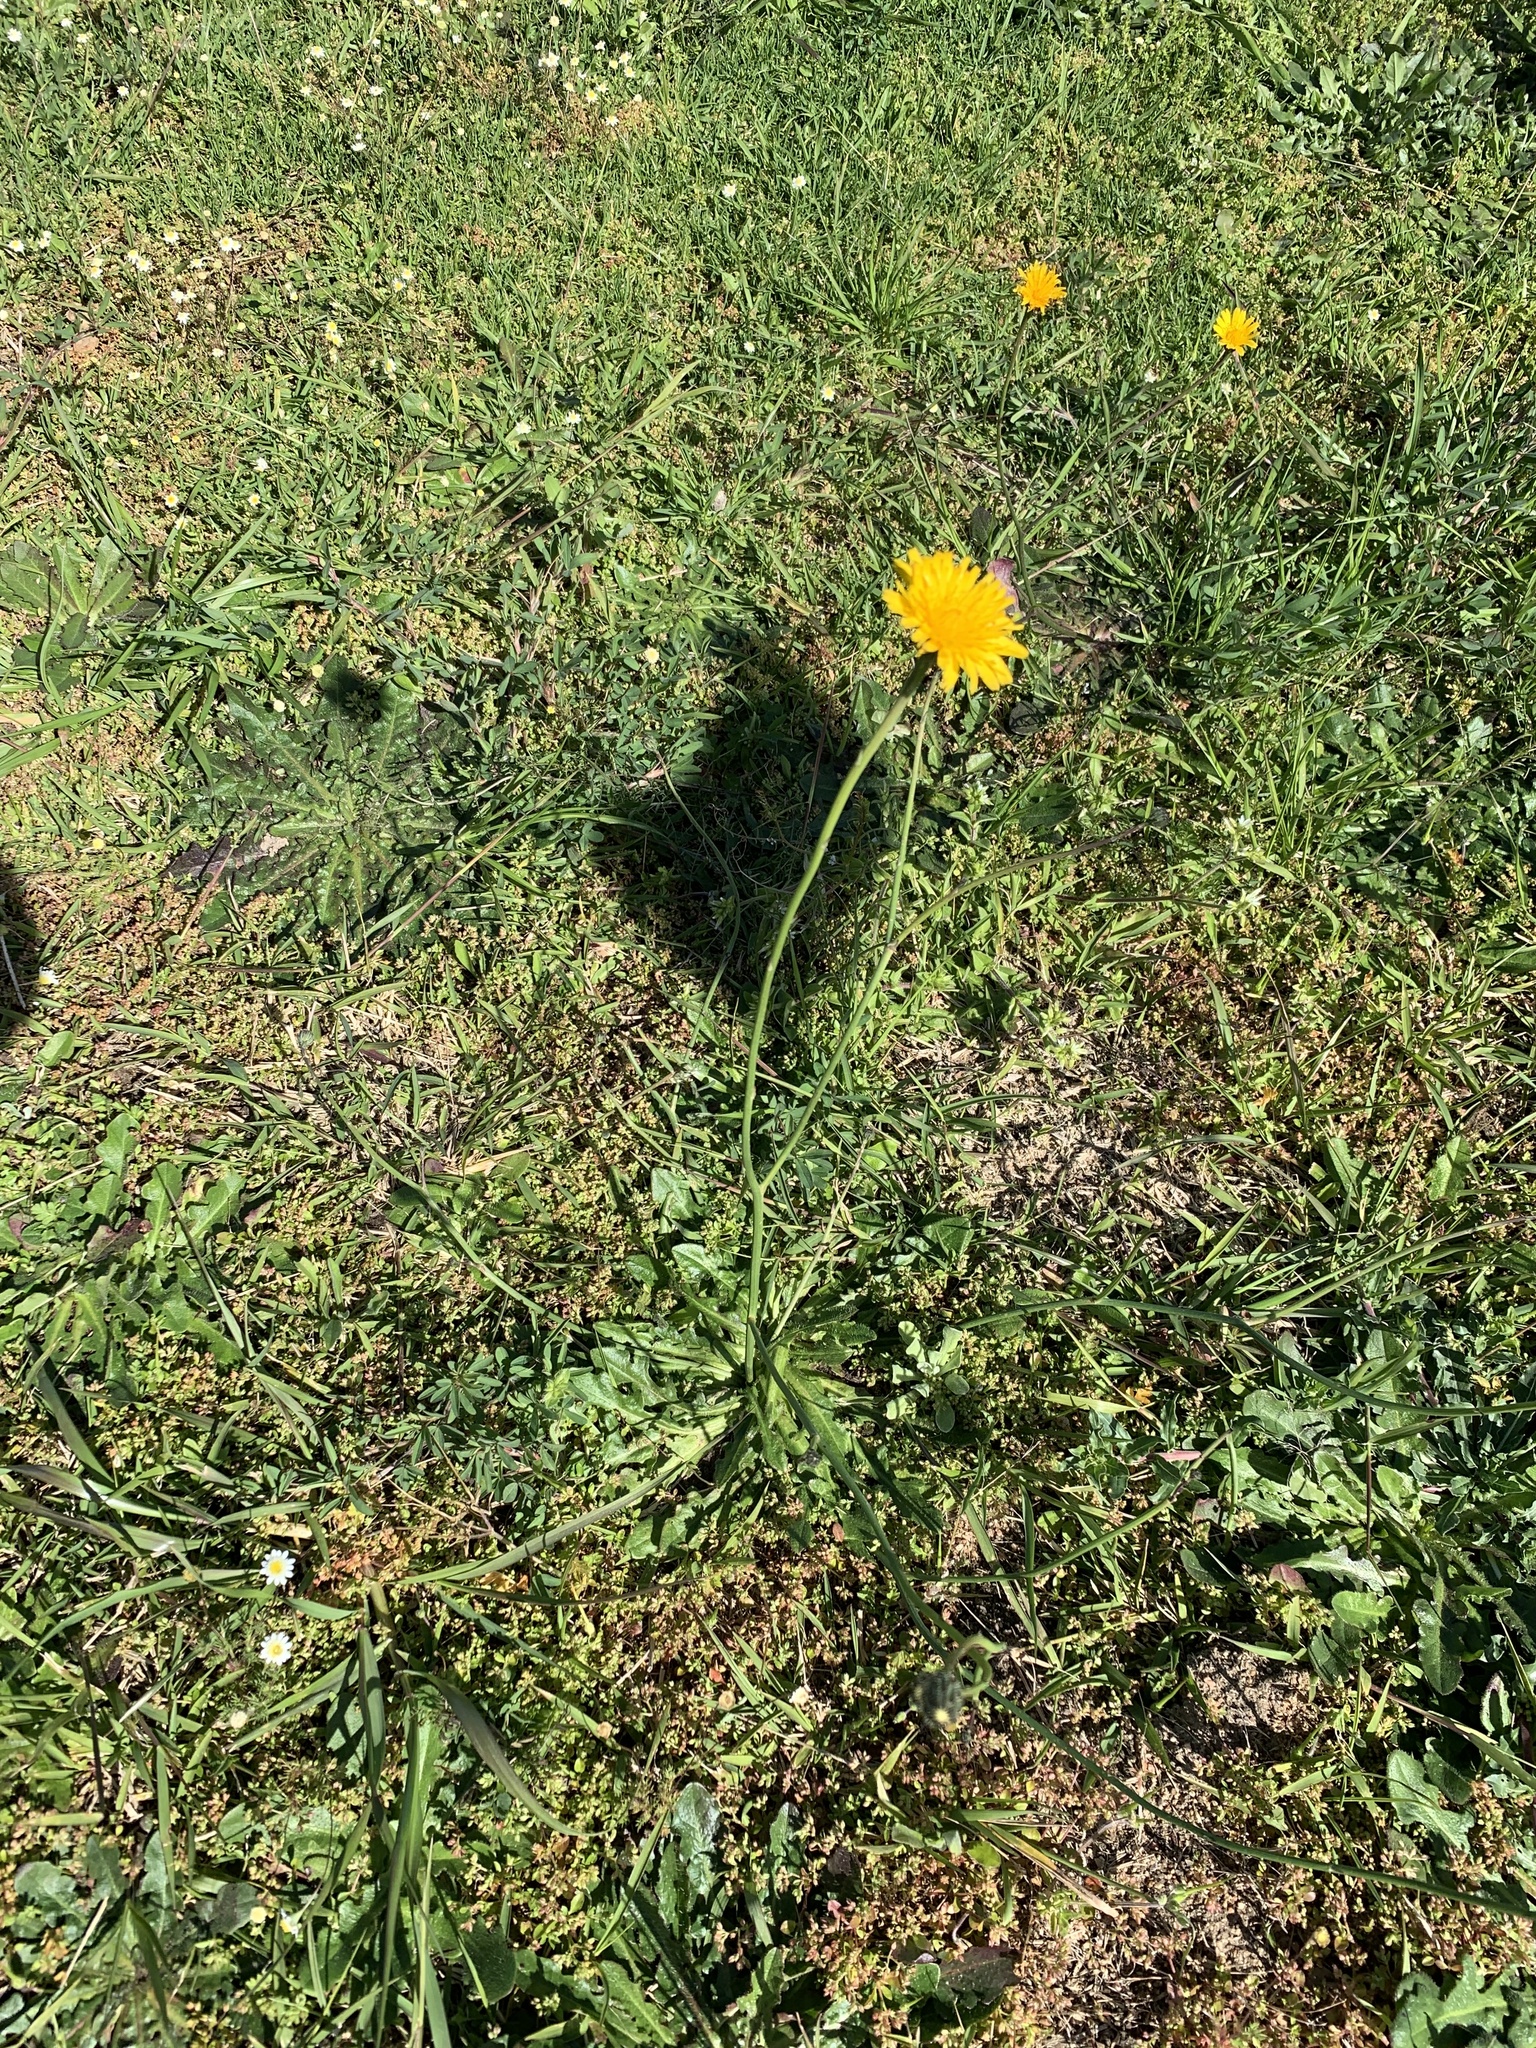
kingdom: Plantae
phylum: Tracheophyta
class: Magnoliopsida
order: Asterales
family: Asteraceae
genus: Hypochaeris
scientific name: Hypochaeris radicata
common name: Flatweed
